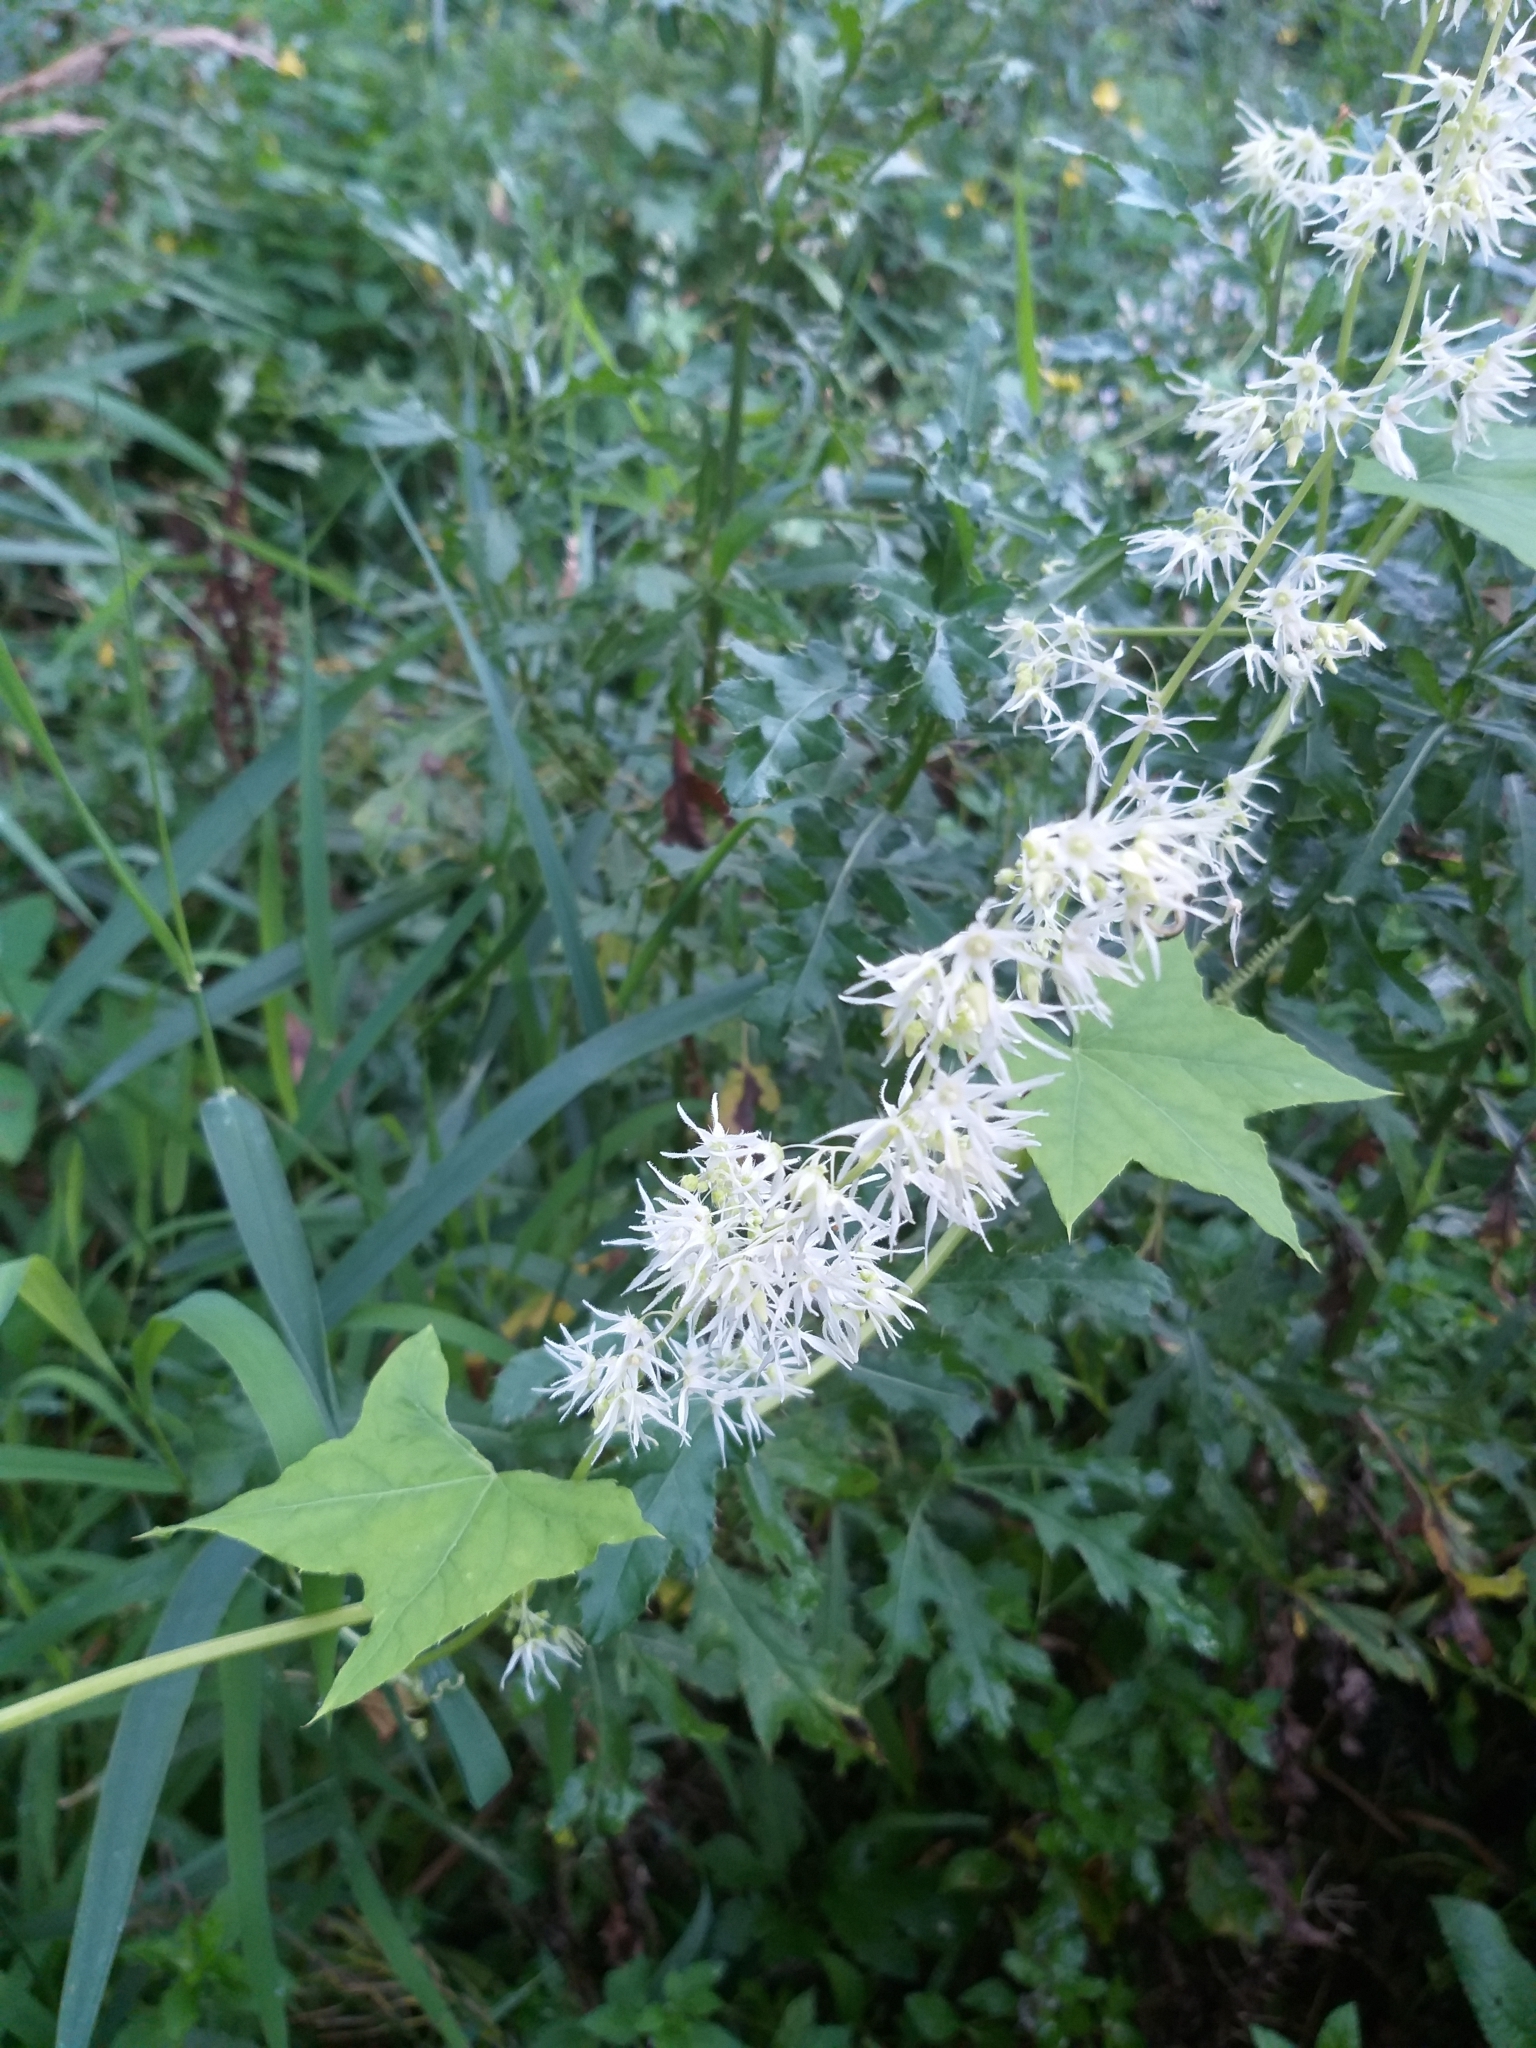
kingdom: Plantae
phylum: Tracheophyta
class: Magnoliopsida
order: Cucurbitales
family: Cucurbitaceae
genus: Echinocystis
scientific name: Echinocystis lobata
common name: Wild cucumber
